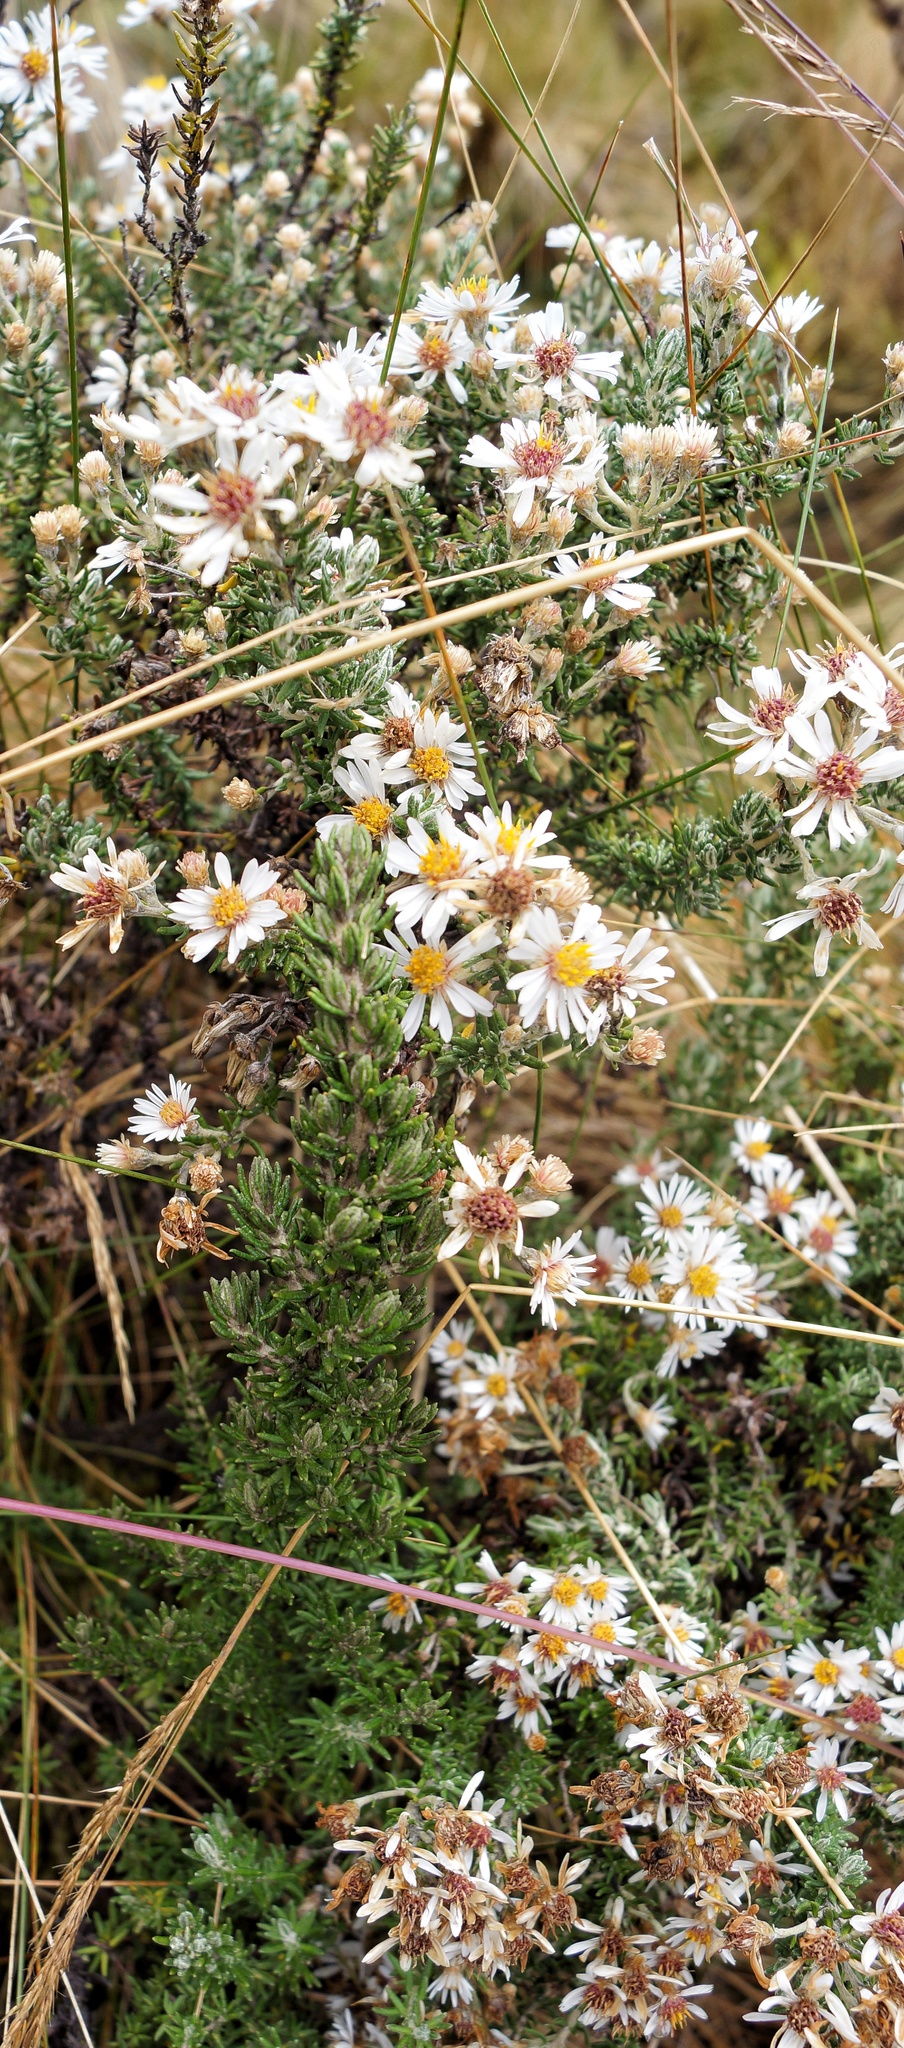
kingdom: Plantae
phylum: Tracheophyta
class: Magnoliopsida
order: Asterales
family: Asteraceae
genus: Diplostephium
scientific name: Diplostephium barclayanum
